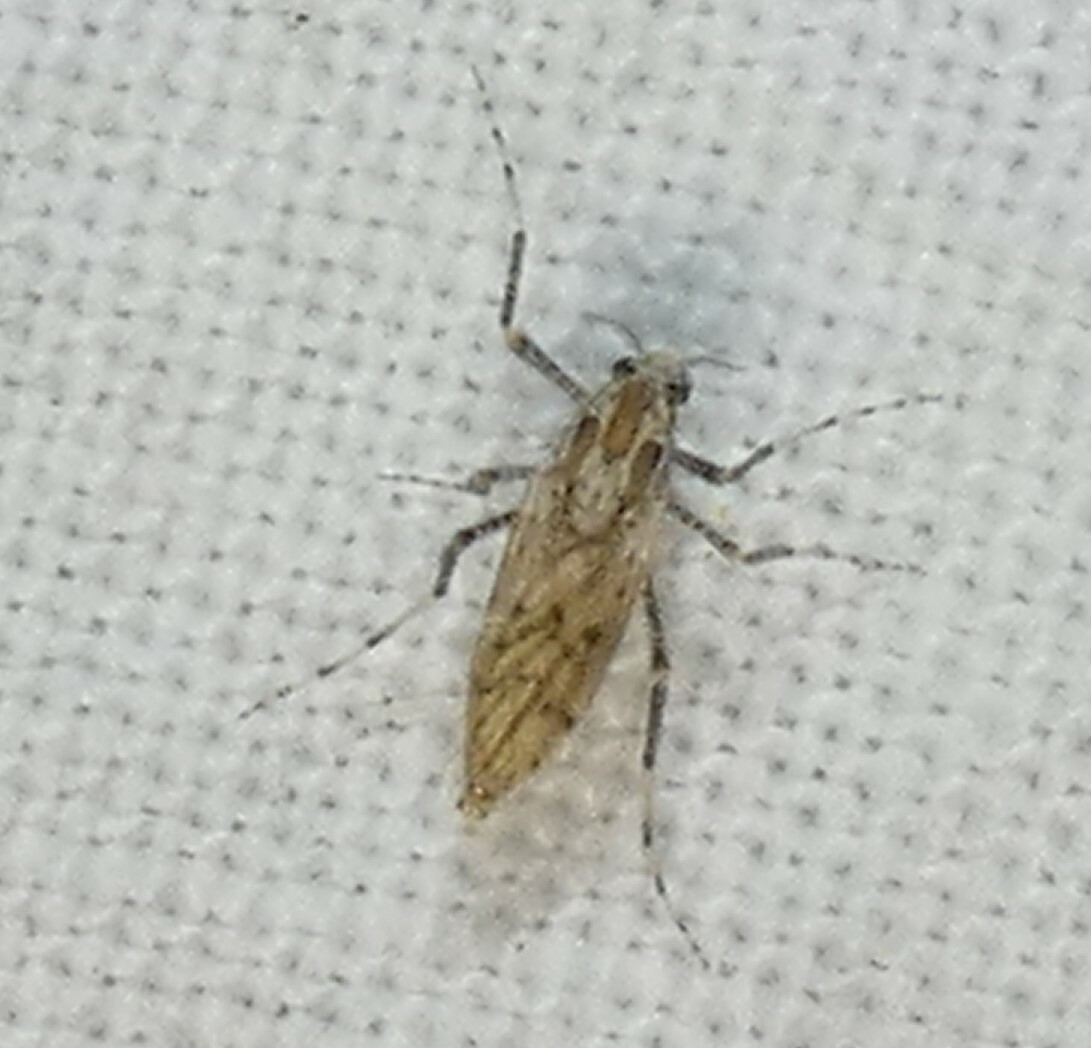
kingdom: Animalia
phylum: Arthropoda
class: Insecta
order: Diptera
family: Chaoboridae
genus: Chaoborus
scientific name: Chaoborus punctipennis
